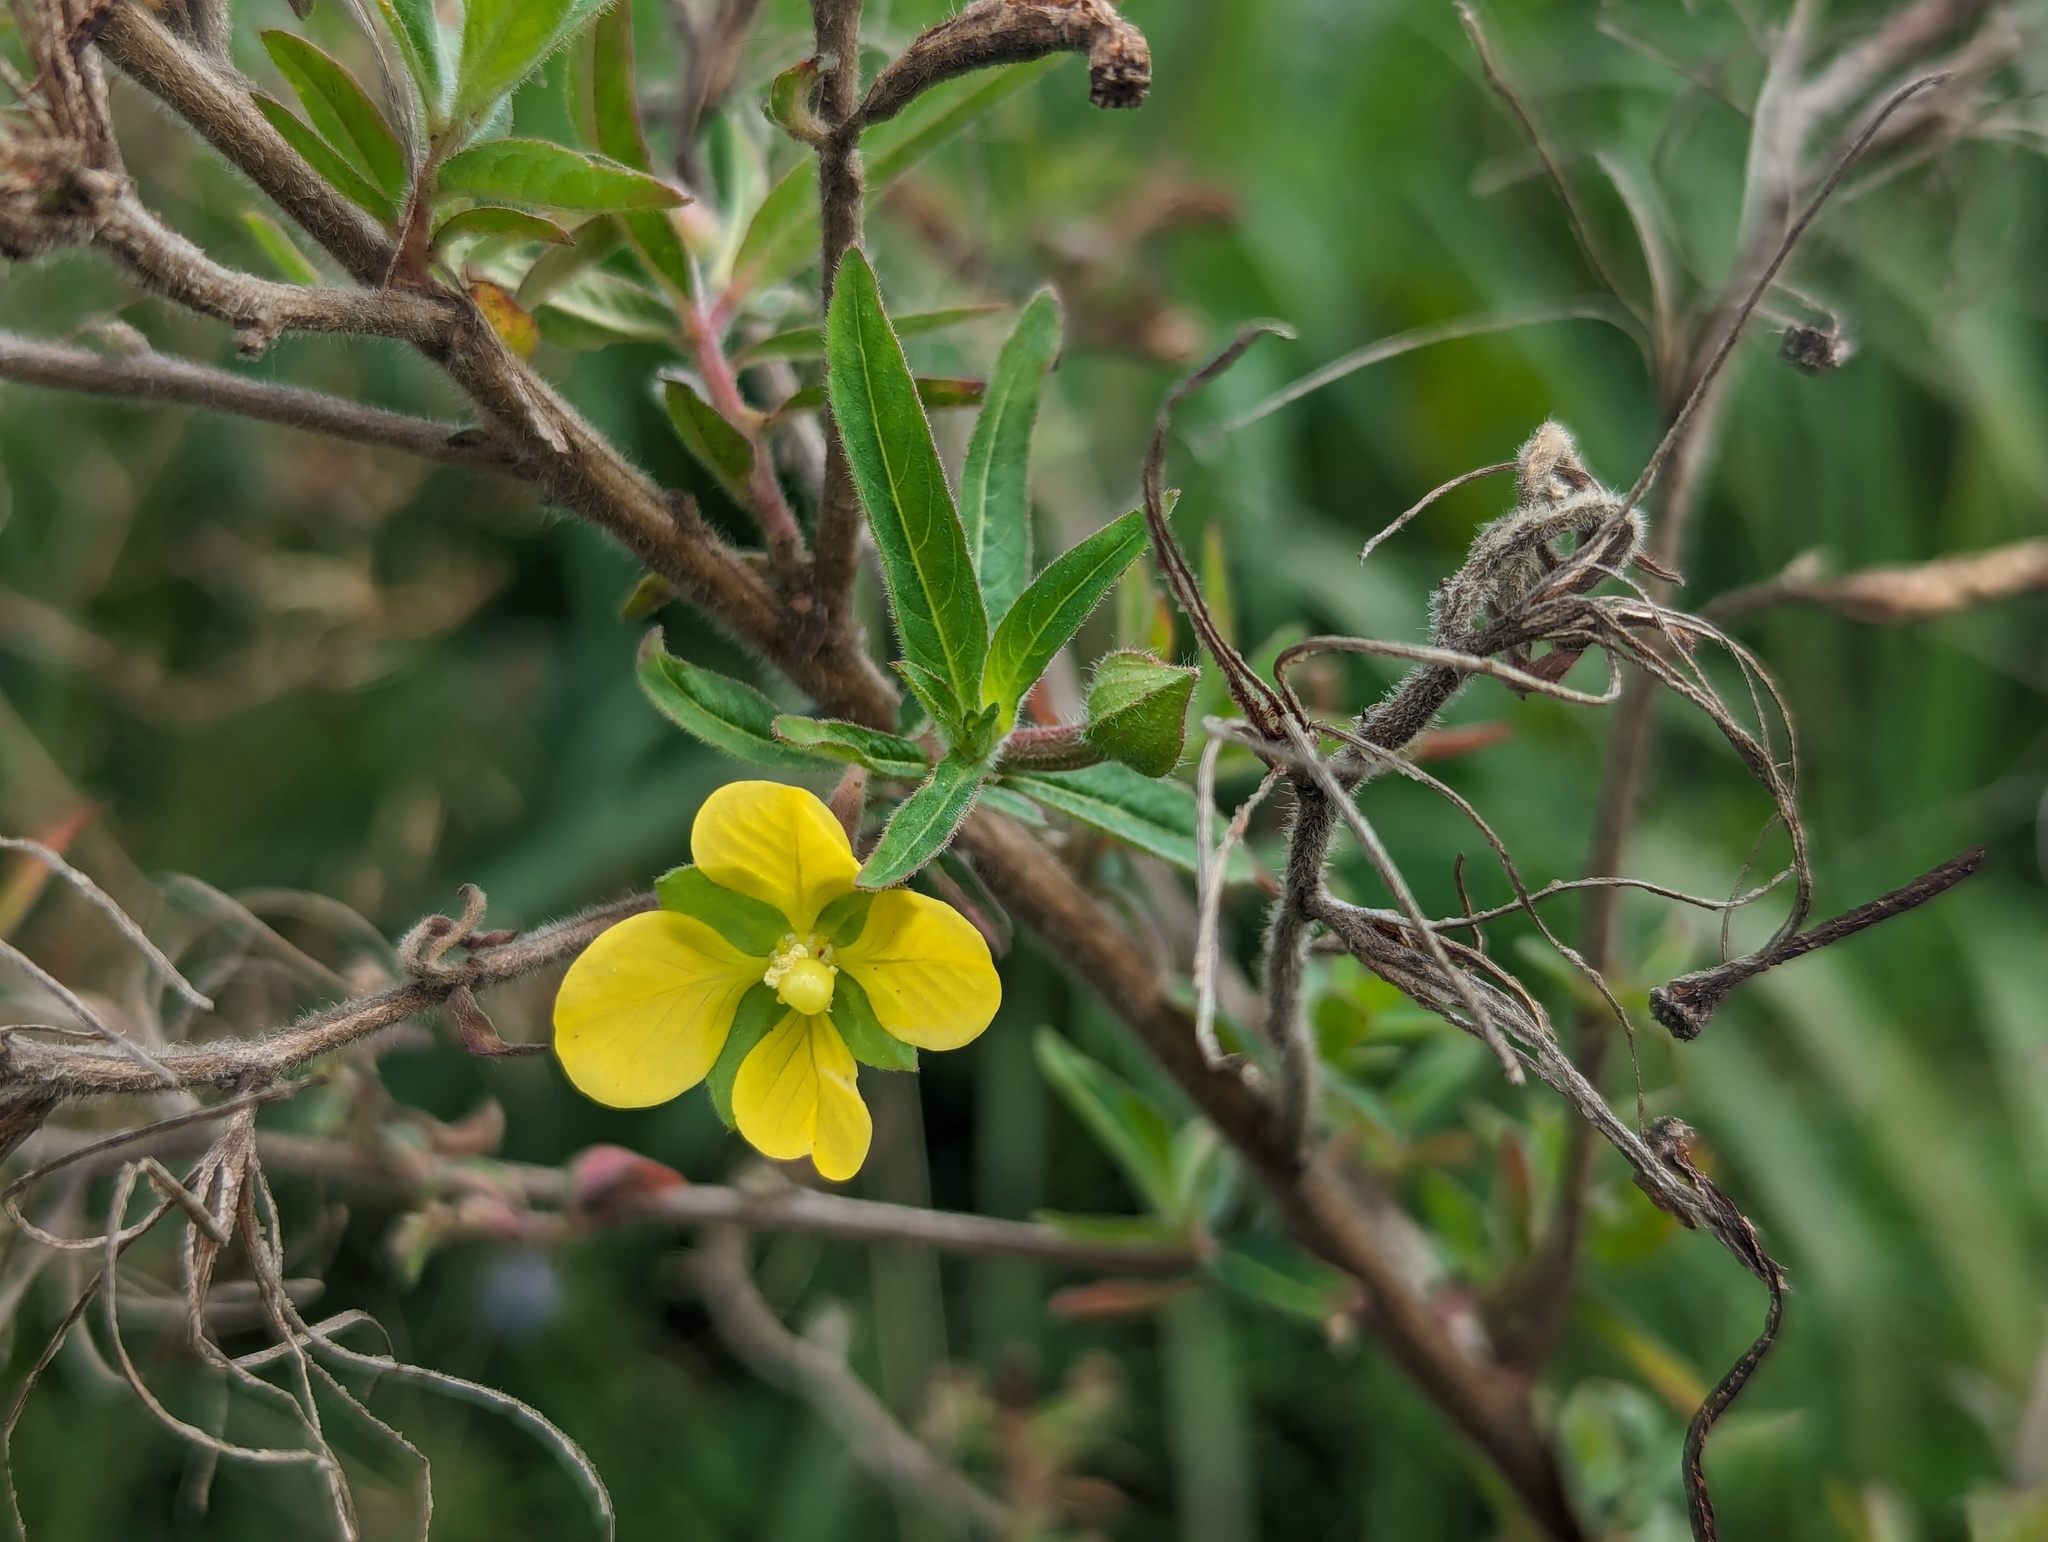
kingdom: Plantae
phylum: Tracheophyta
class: Magnoliopsida
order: Myrtales
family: Onagraceae
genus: Ludwigia
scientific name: Ludwigia octovalvis
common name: Water-primrose
